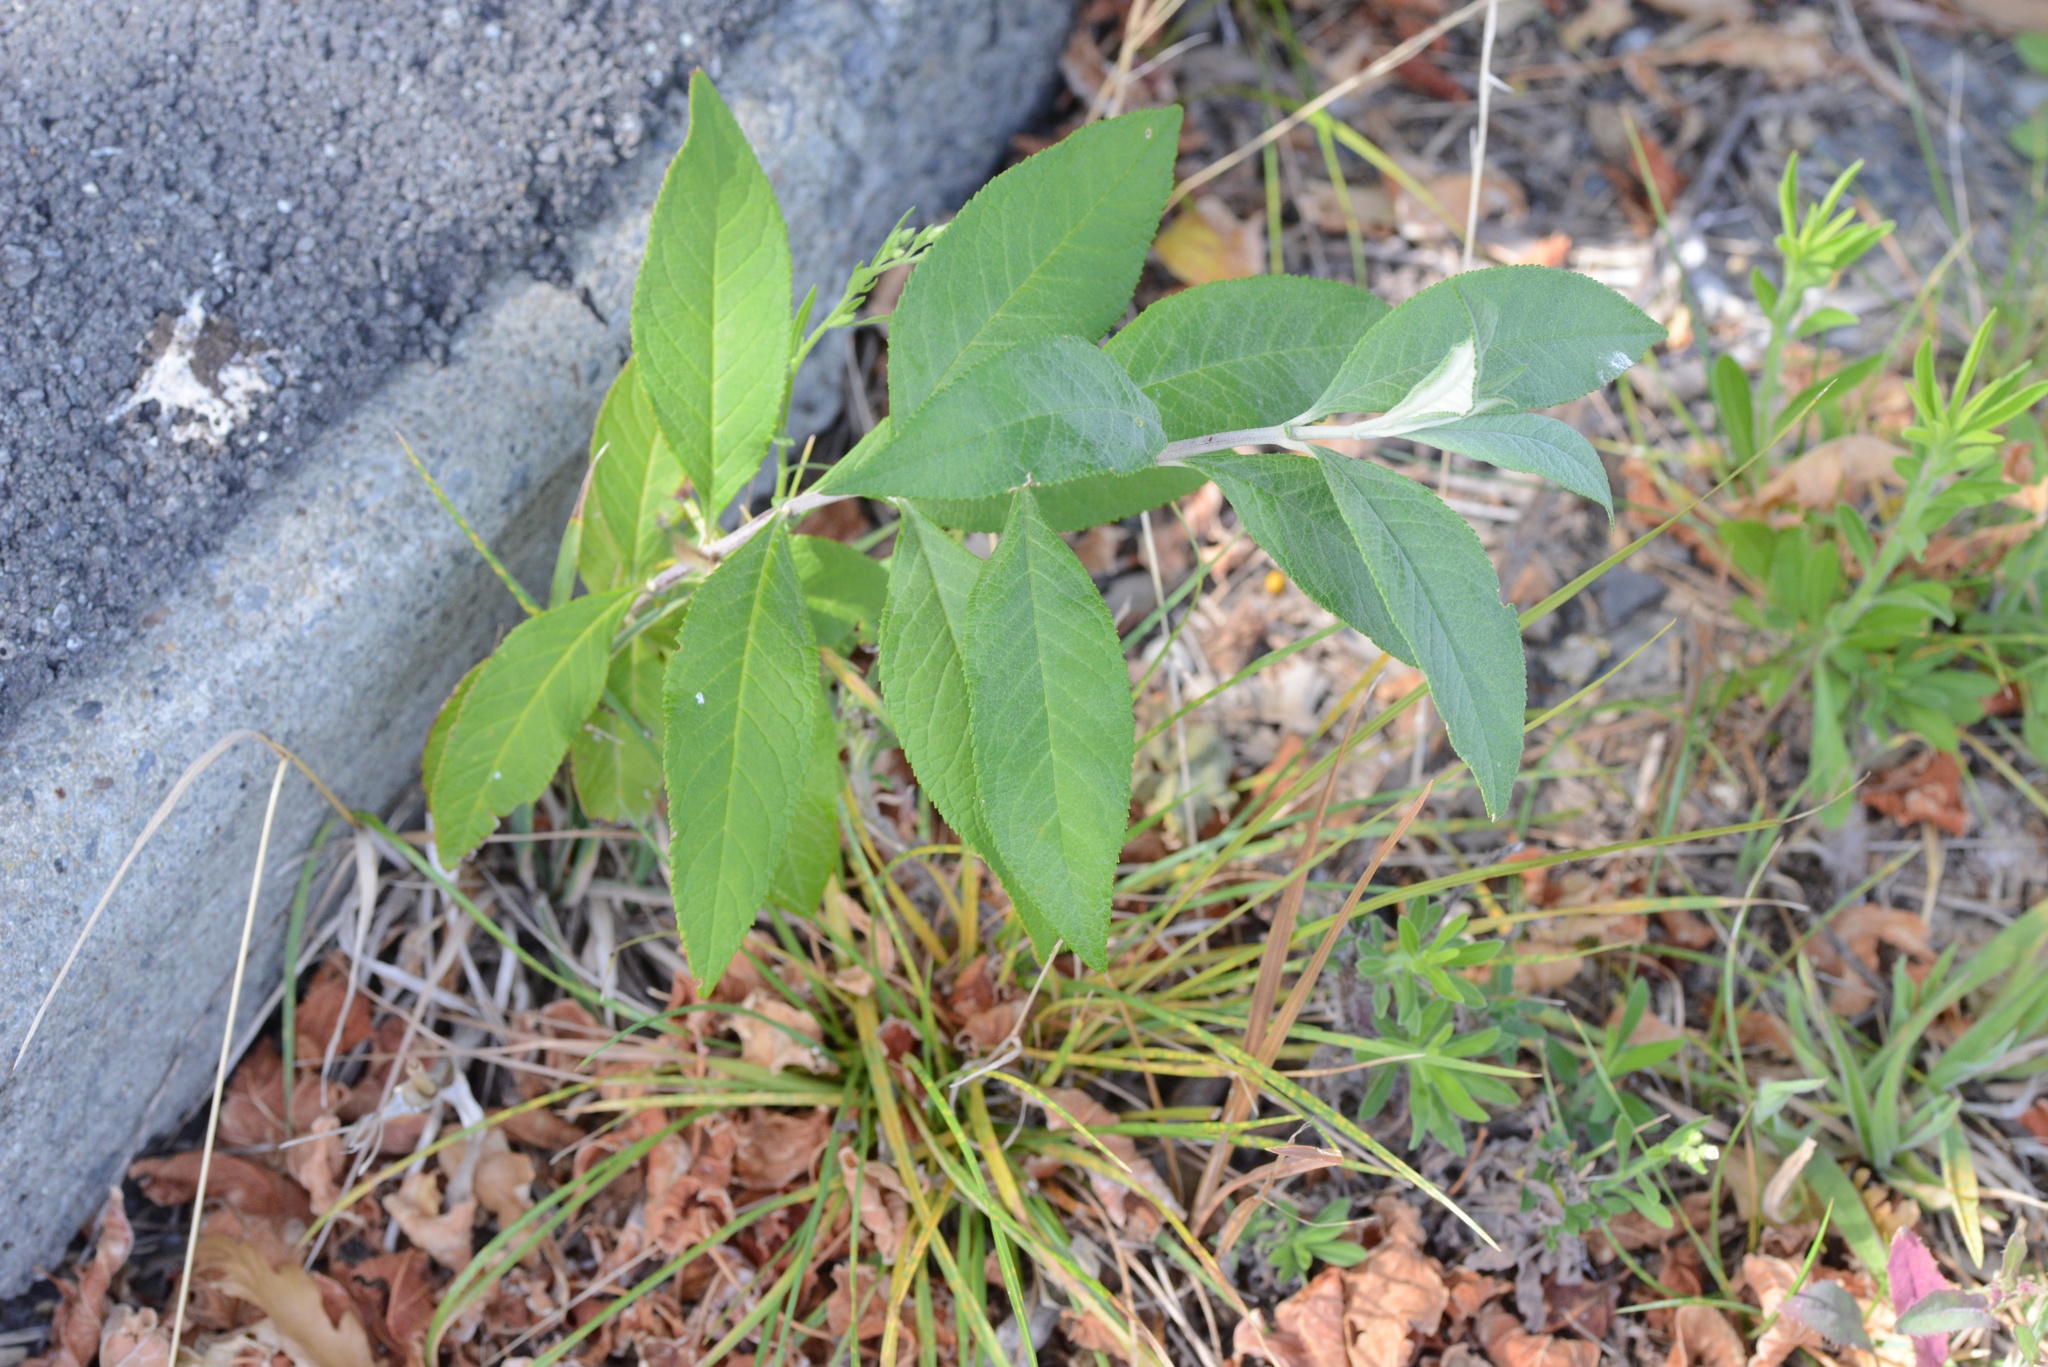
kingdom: Plantae
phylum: Tracheophyta
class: Magnoliopsida
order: Lamiales
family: Scrophulariaceae
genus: Buddleja
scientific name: Buddleja davidii
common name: Butterfly-bush
